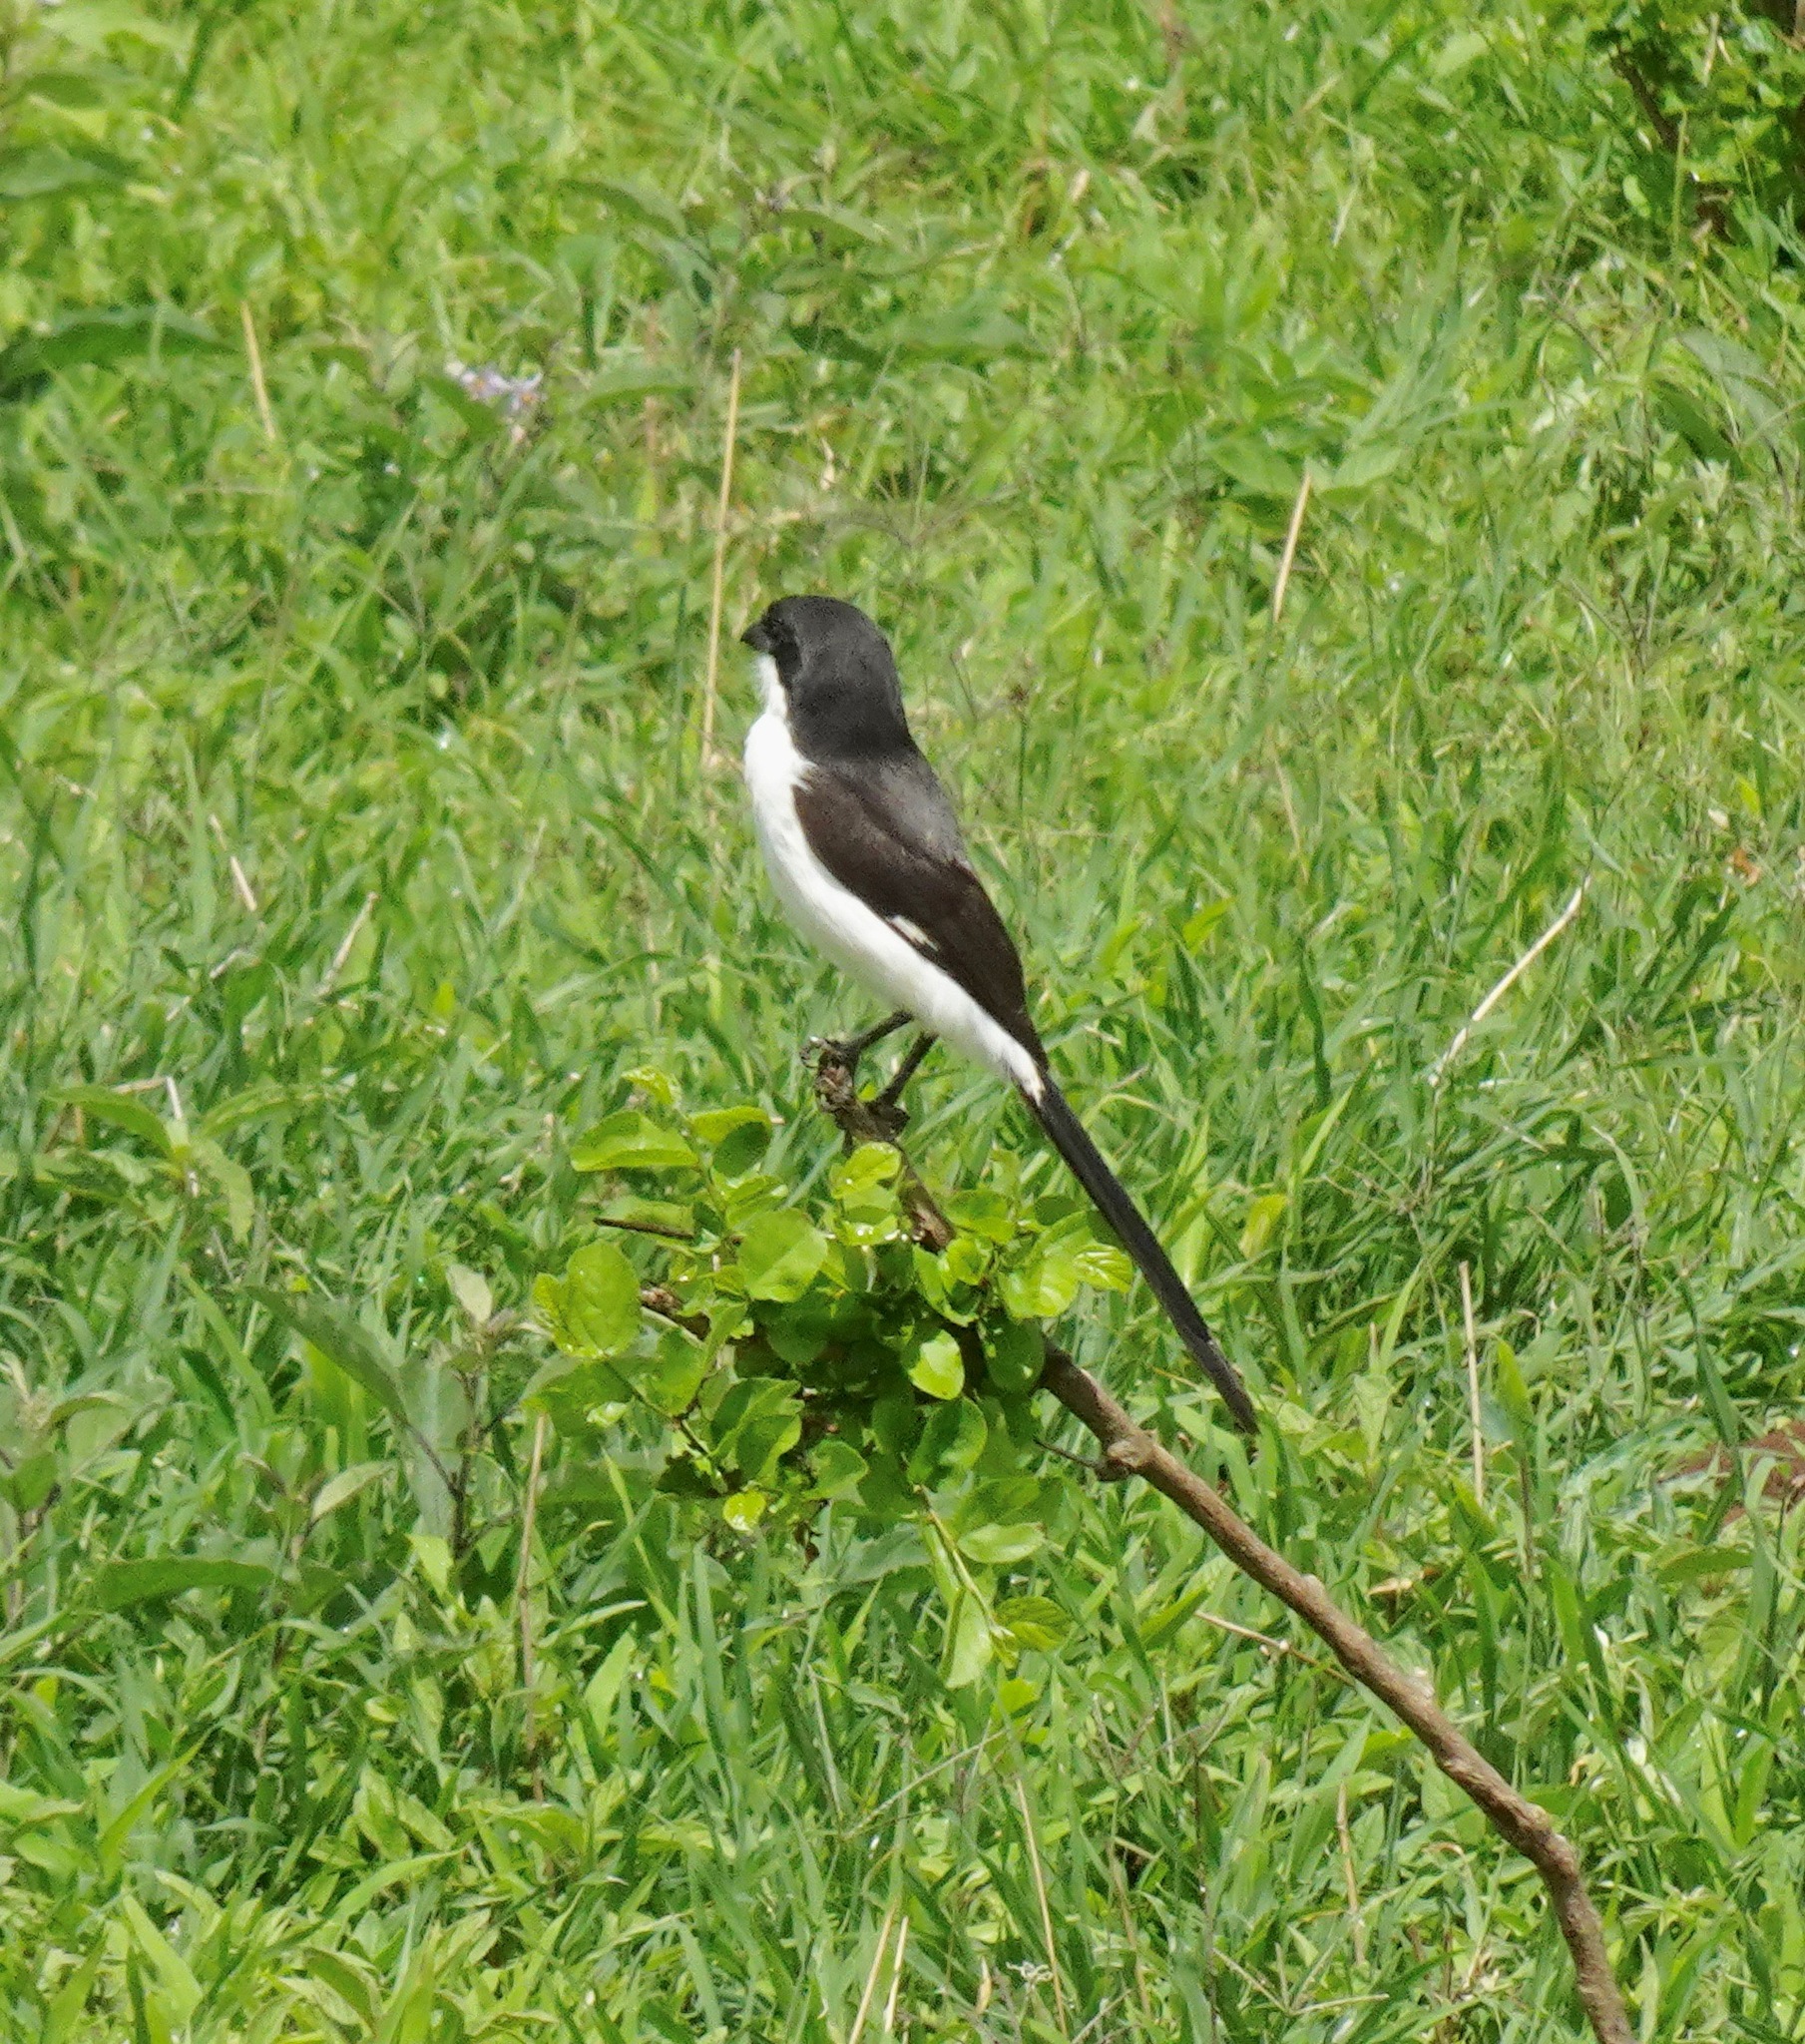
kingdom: Animalia
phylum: Chordata
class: Aves
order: Passeriformes
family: Laniidae
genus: Lanius
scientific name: Lanius cabanisi
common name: Long-tailed fiscal
